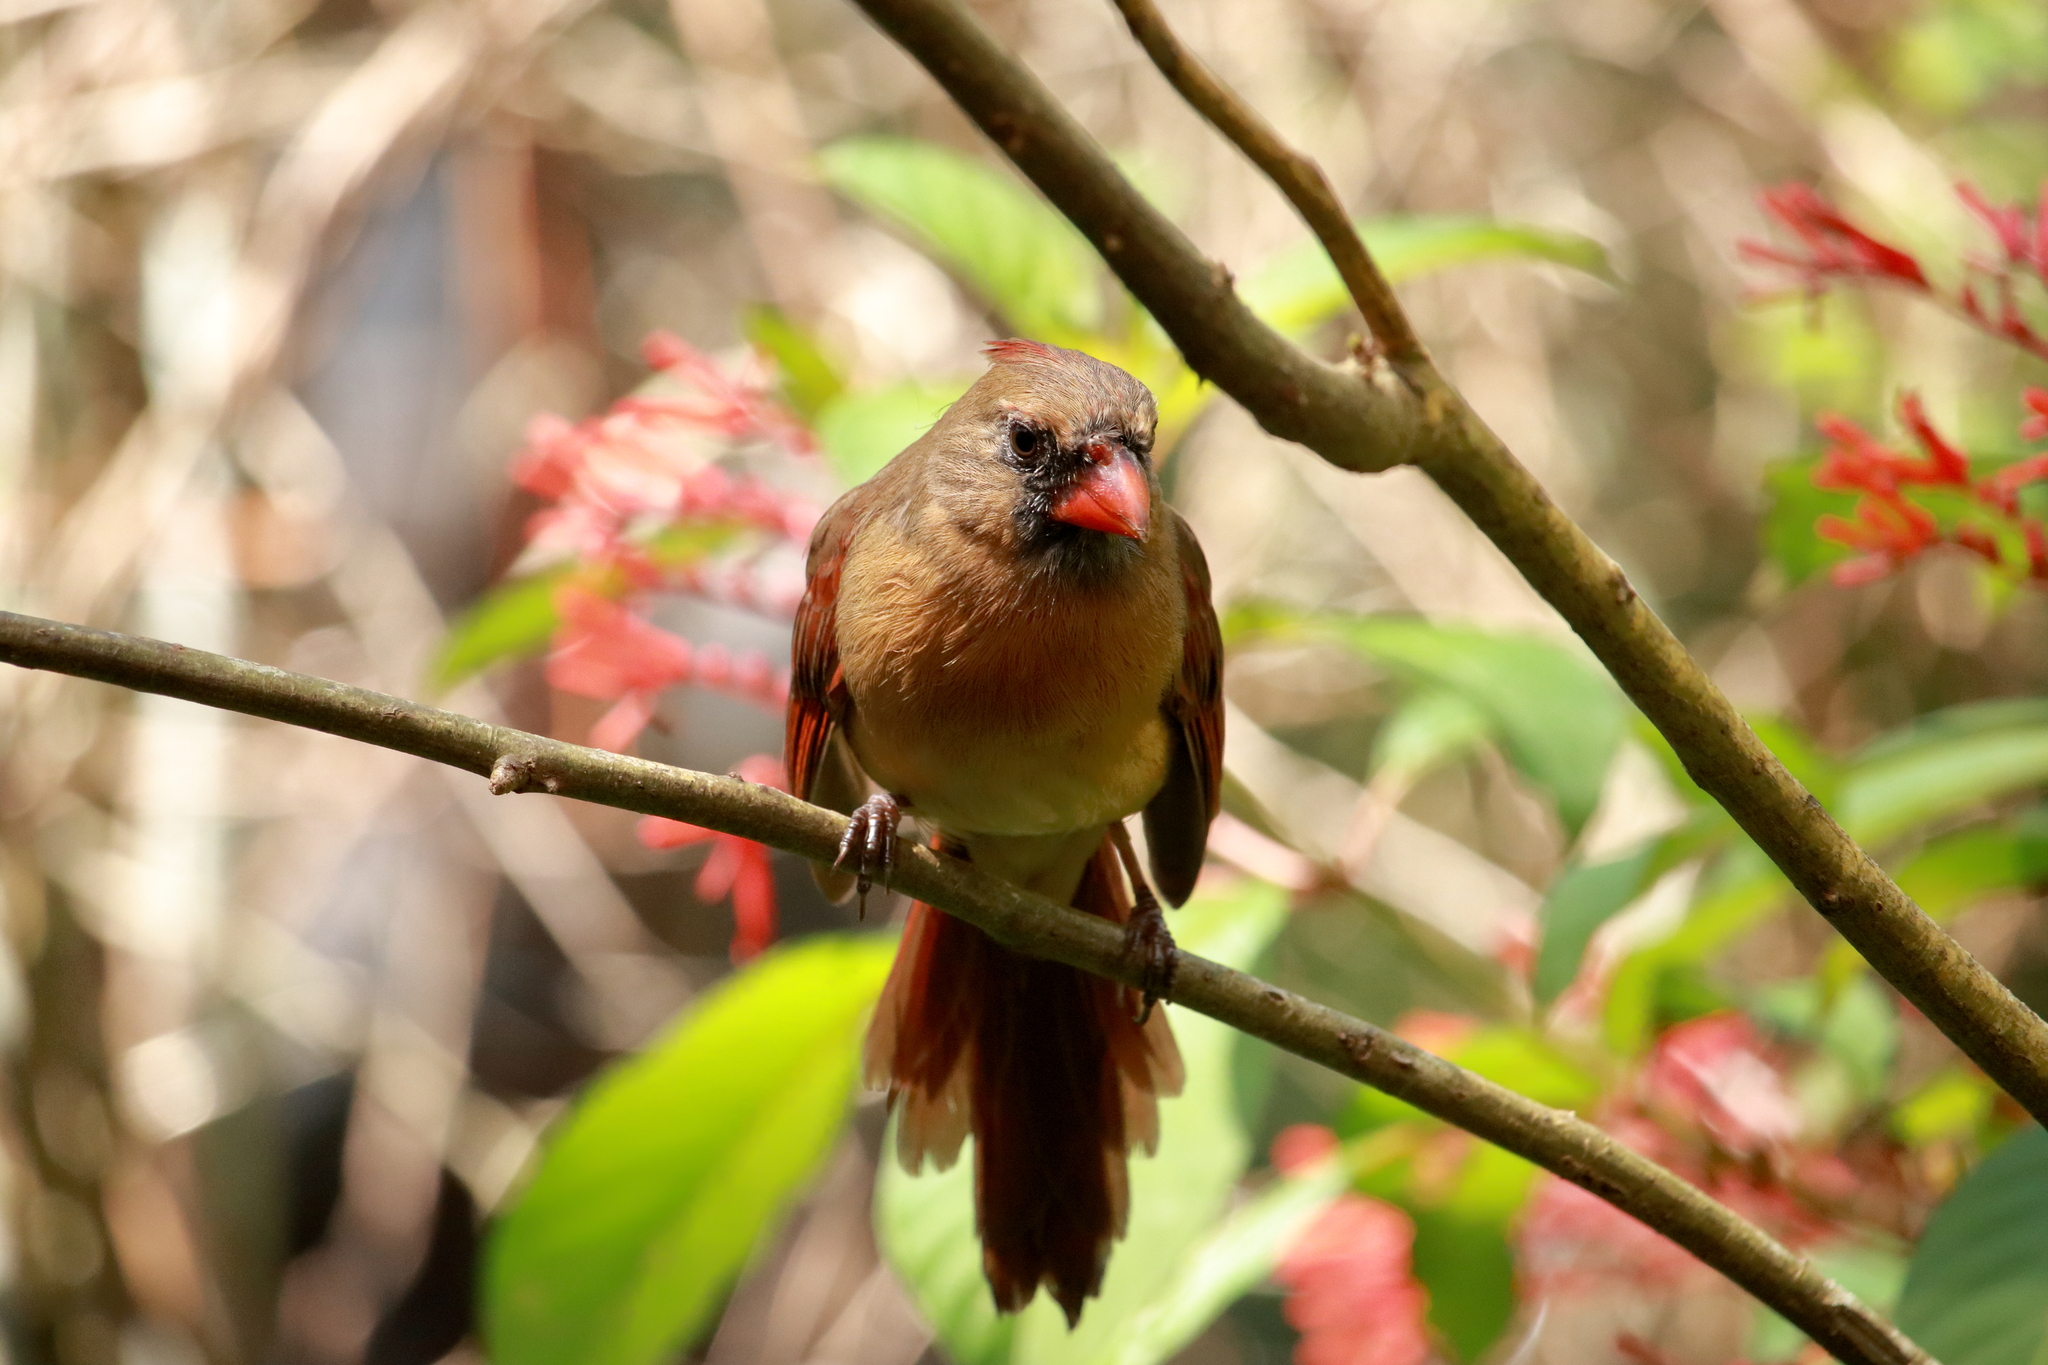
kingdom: Animalia
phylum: Chordata
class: Aves
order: Passeriformes
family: Cardinalidae
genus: Cardinalis
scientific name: Cardinalis cardinalis
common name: Northern cardinal
